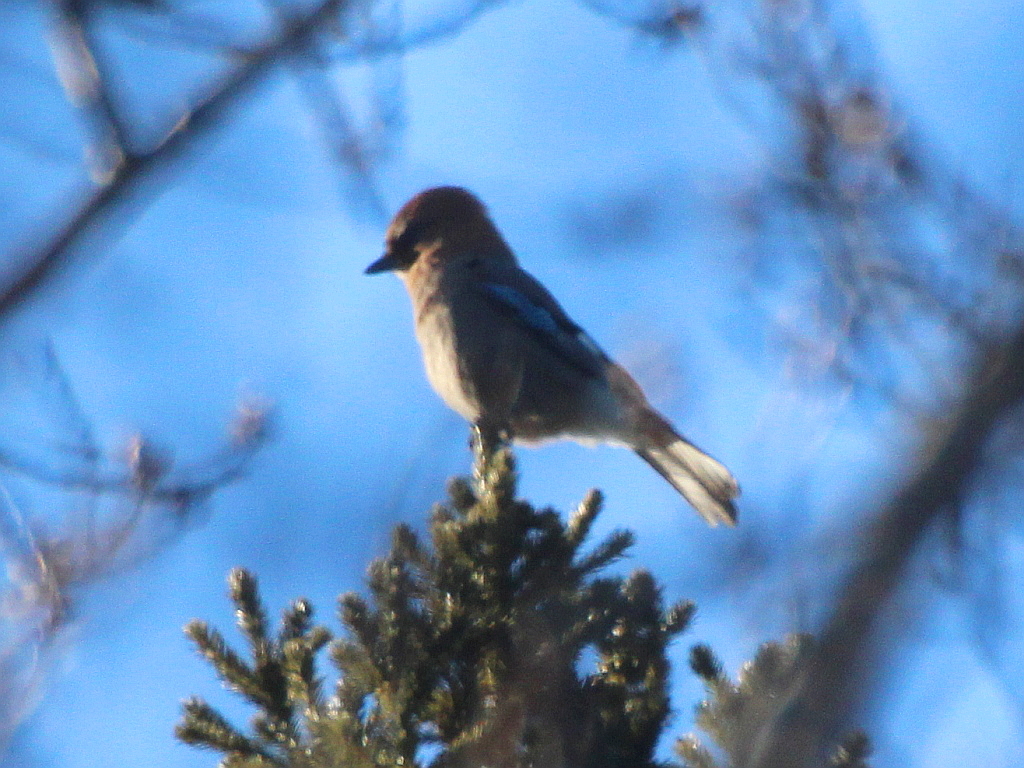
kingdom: Animalia
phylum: Chordata
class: Aves
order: Passeriformes
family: Corvidae
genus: Garrulus
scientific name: Garrulus glandarius
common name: Eurasian jay
